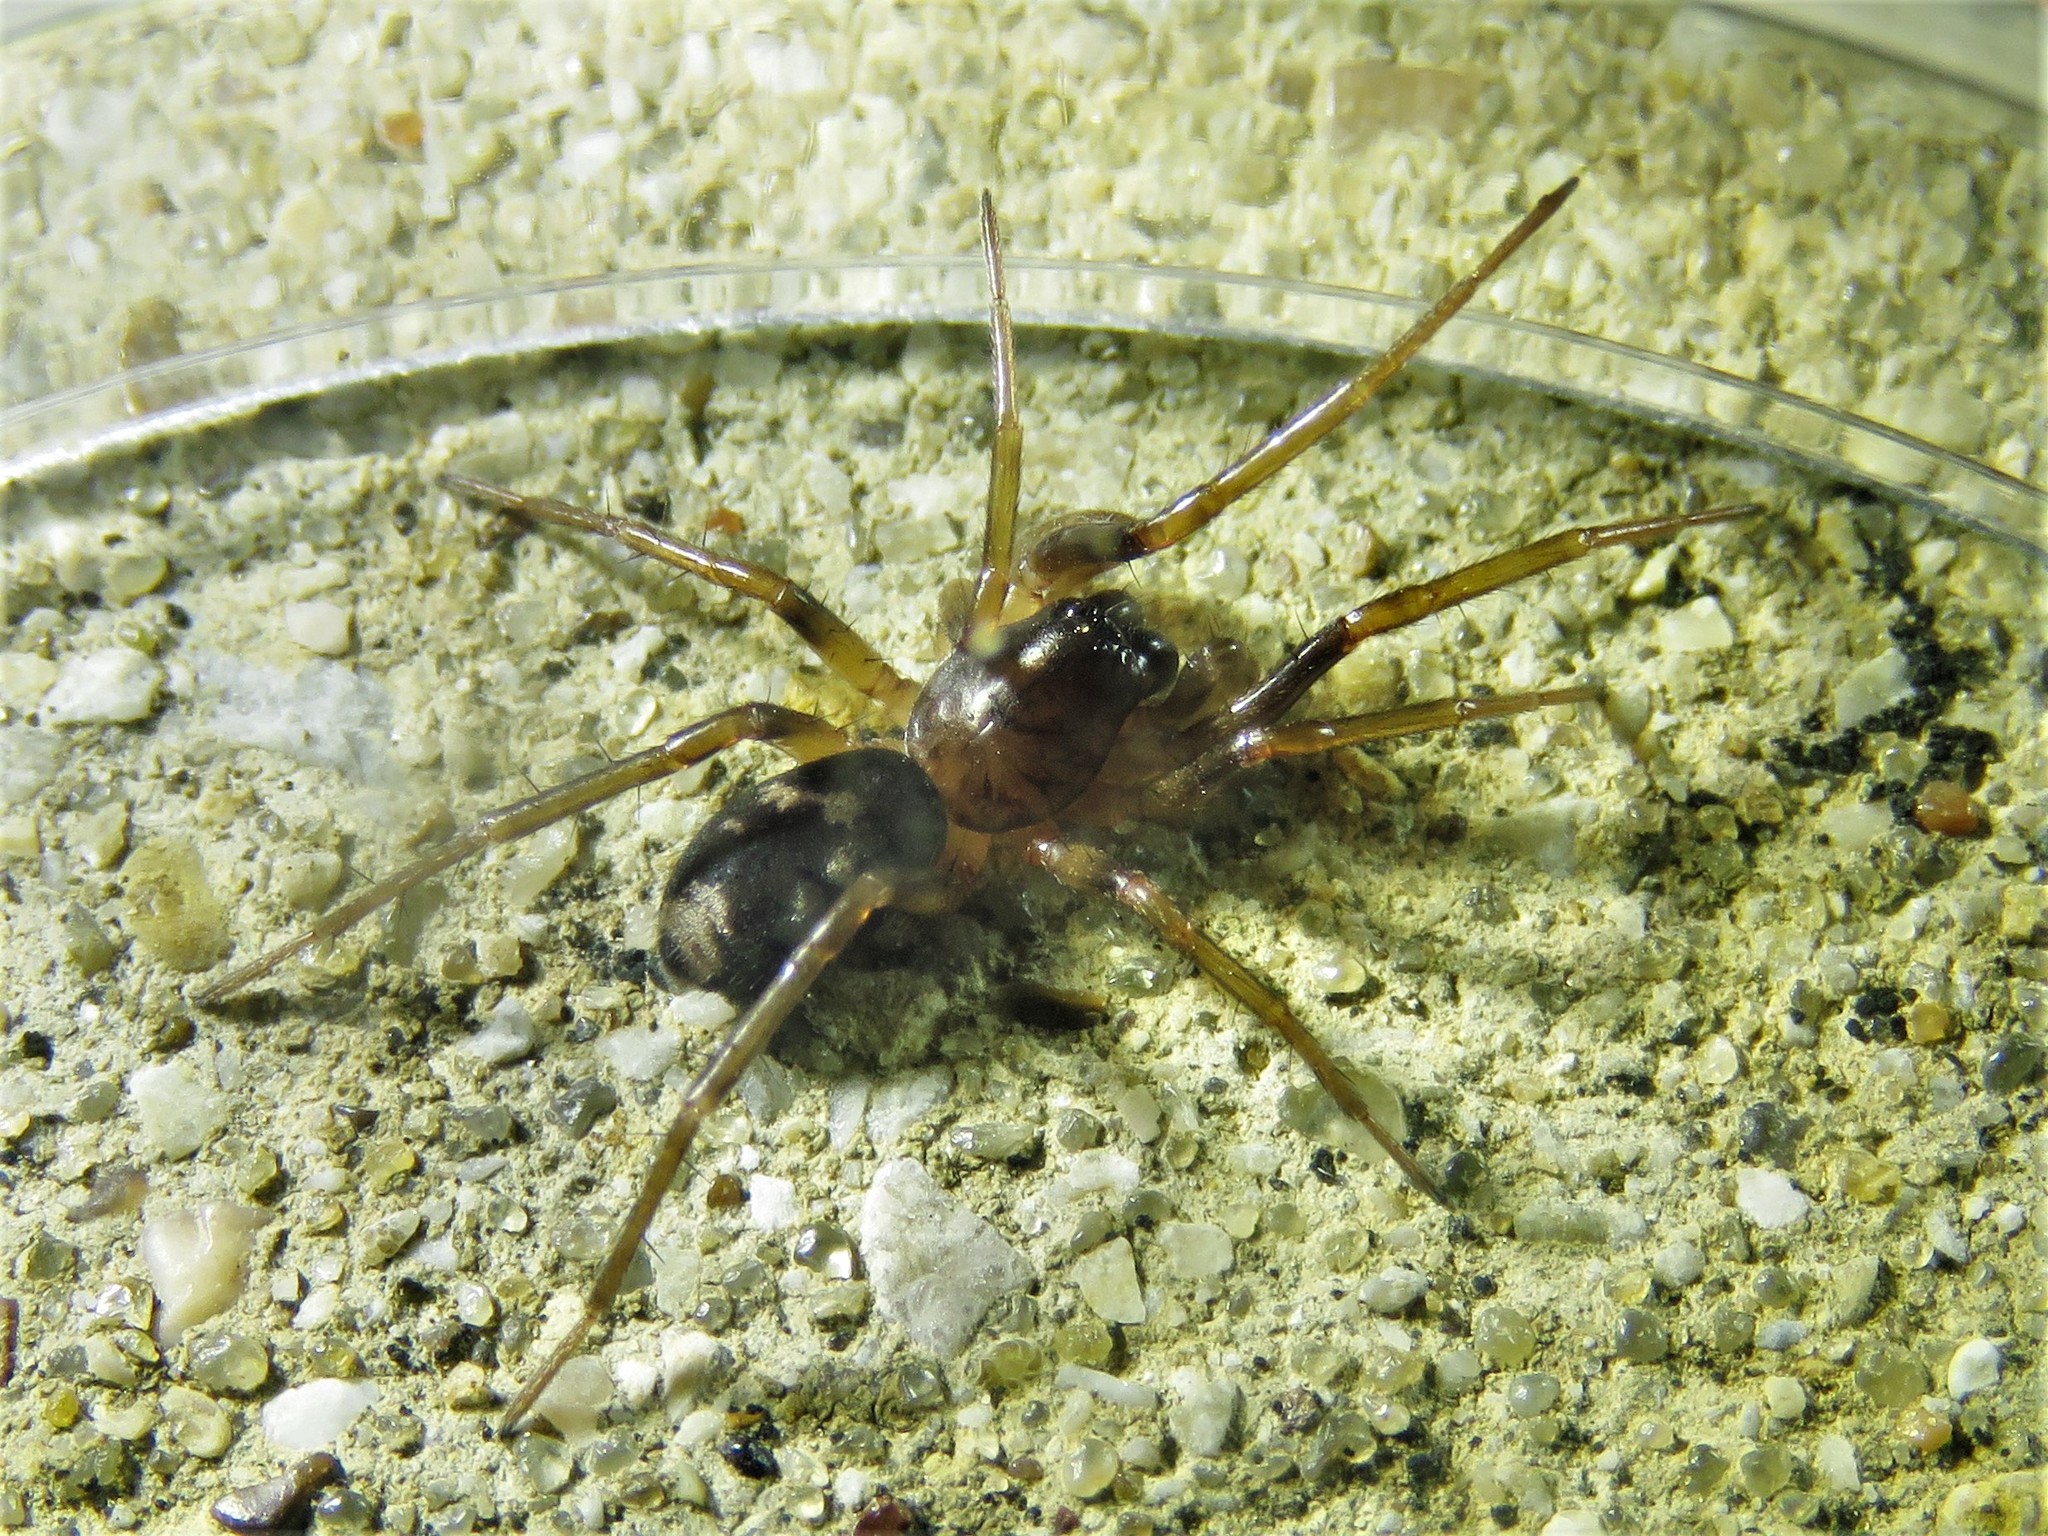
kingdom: Animalia
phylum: Arthropoda
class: Arachnida
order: Araneae
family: Corinnidae
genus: Falconina
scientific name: Falconina gracilis
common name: Antmimic spider
